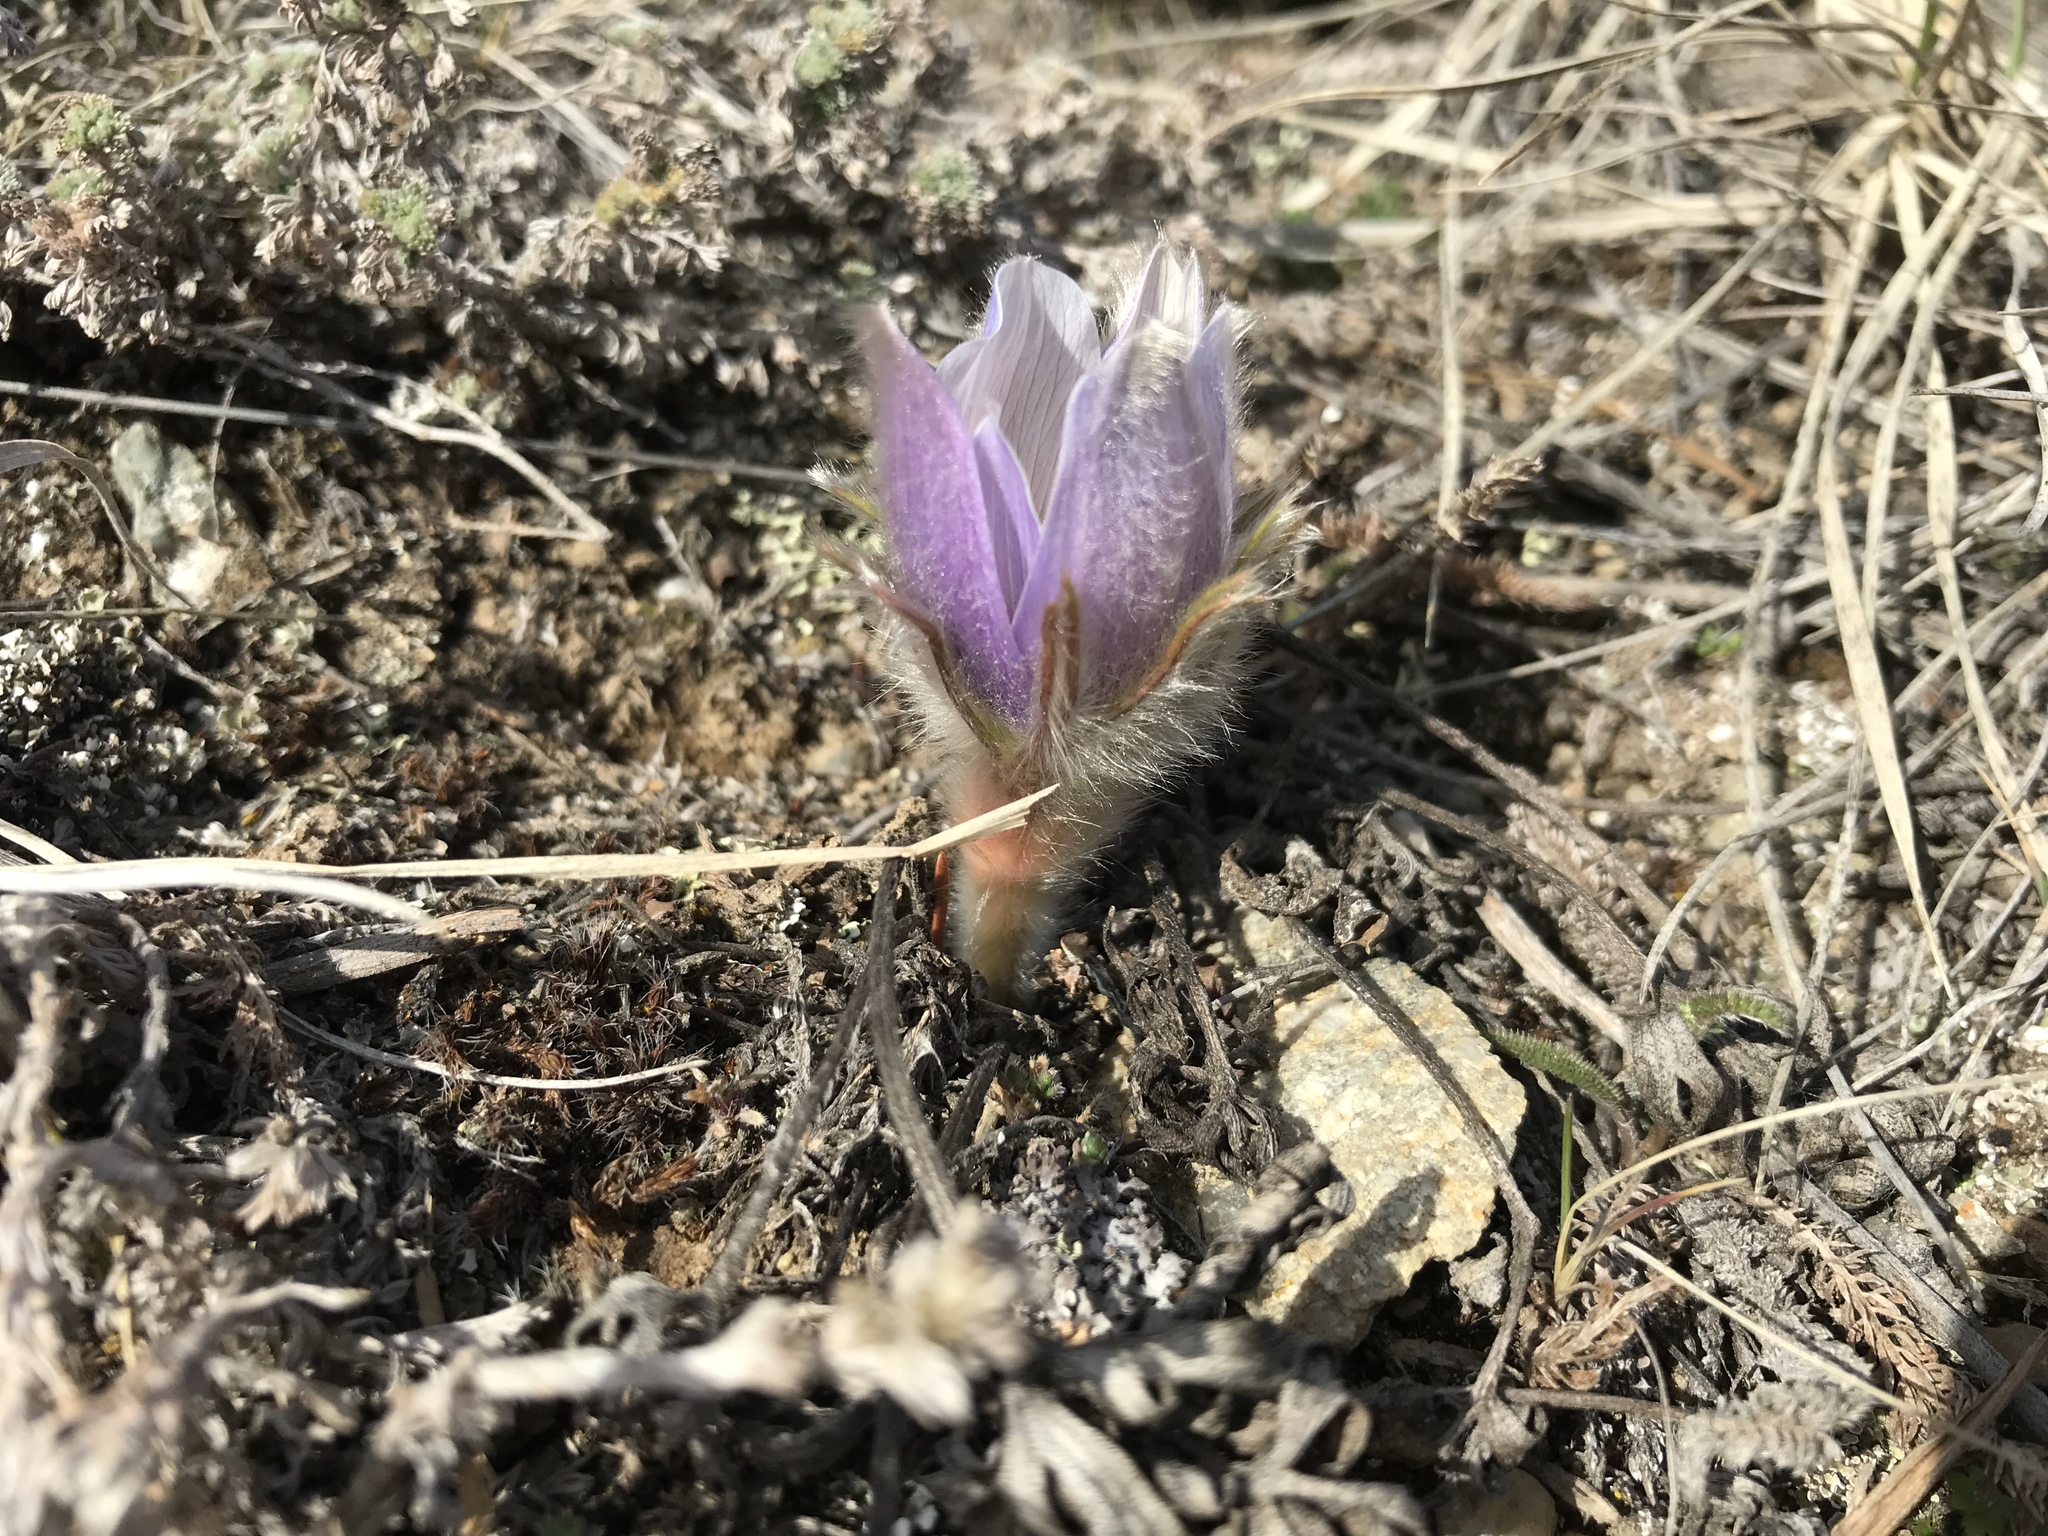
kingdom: Plantae
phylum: Tracheophyta
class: Magnoliopsida
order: Ranunculales
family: Ranunculaceae
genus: Pulsatilla
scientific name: Pulsatilla nuttalliana
